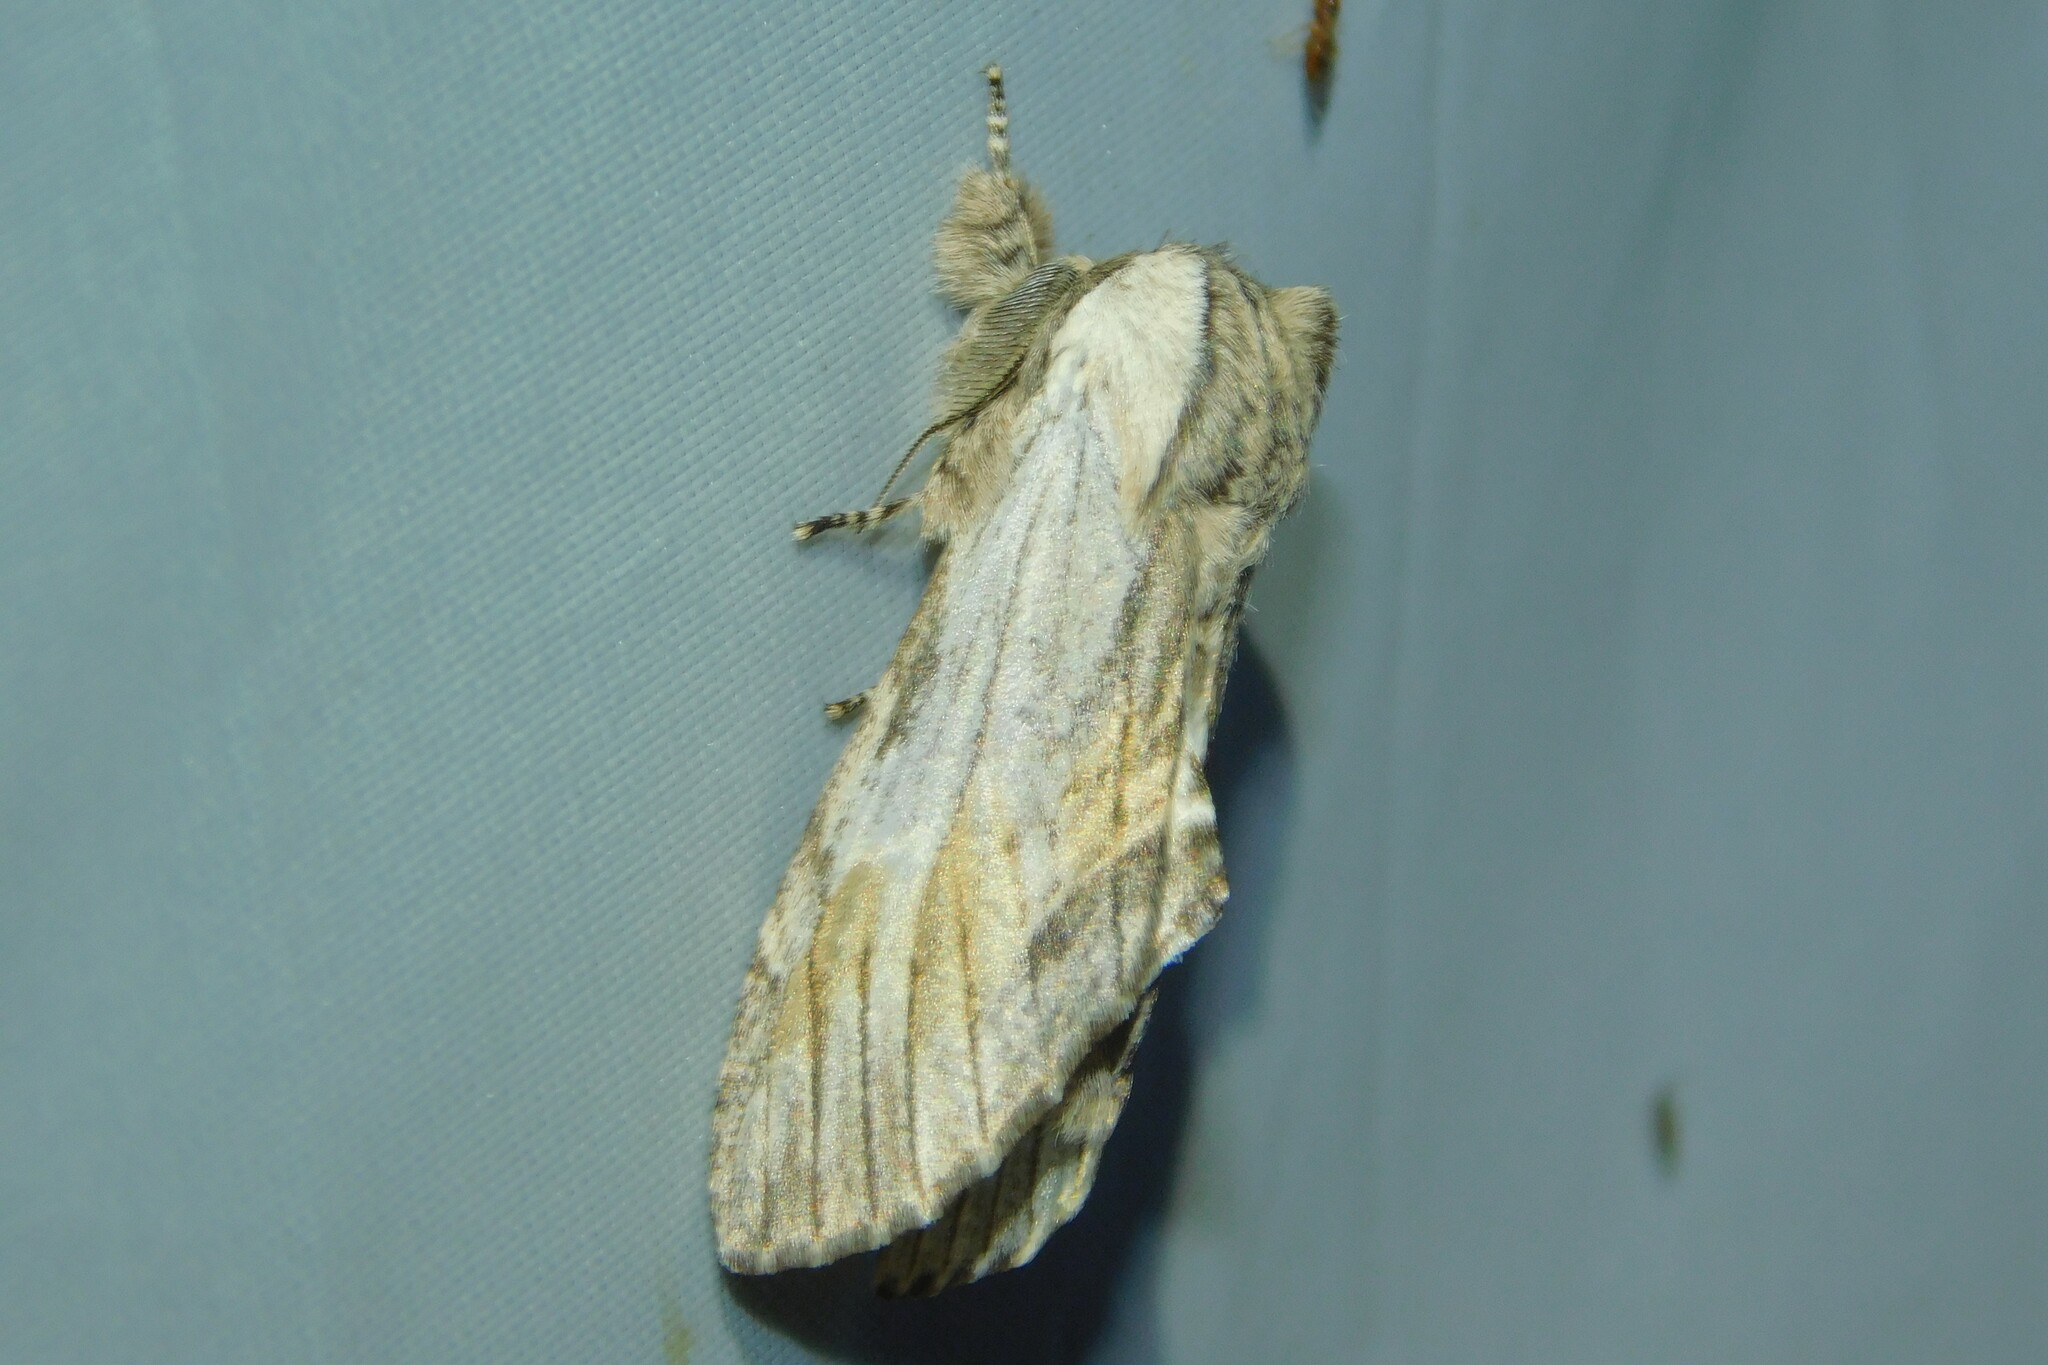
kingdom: Animalia
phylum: Arthropoda
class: Insecta
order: Lepidoptera
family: Notodontidae
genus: Harpyia
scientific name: Harpyia milhauseri
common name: Tawny prominent
